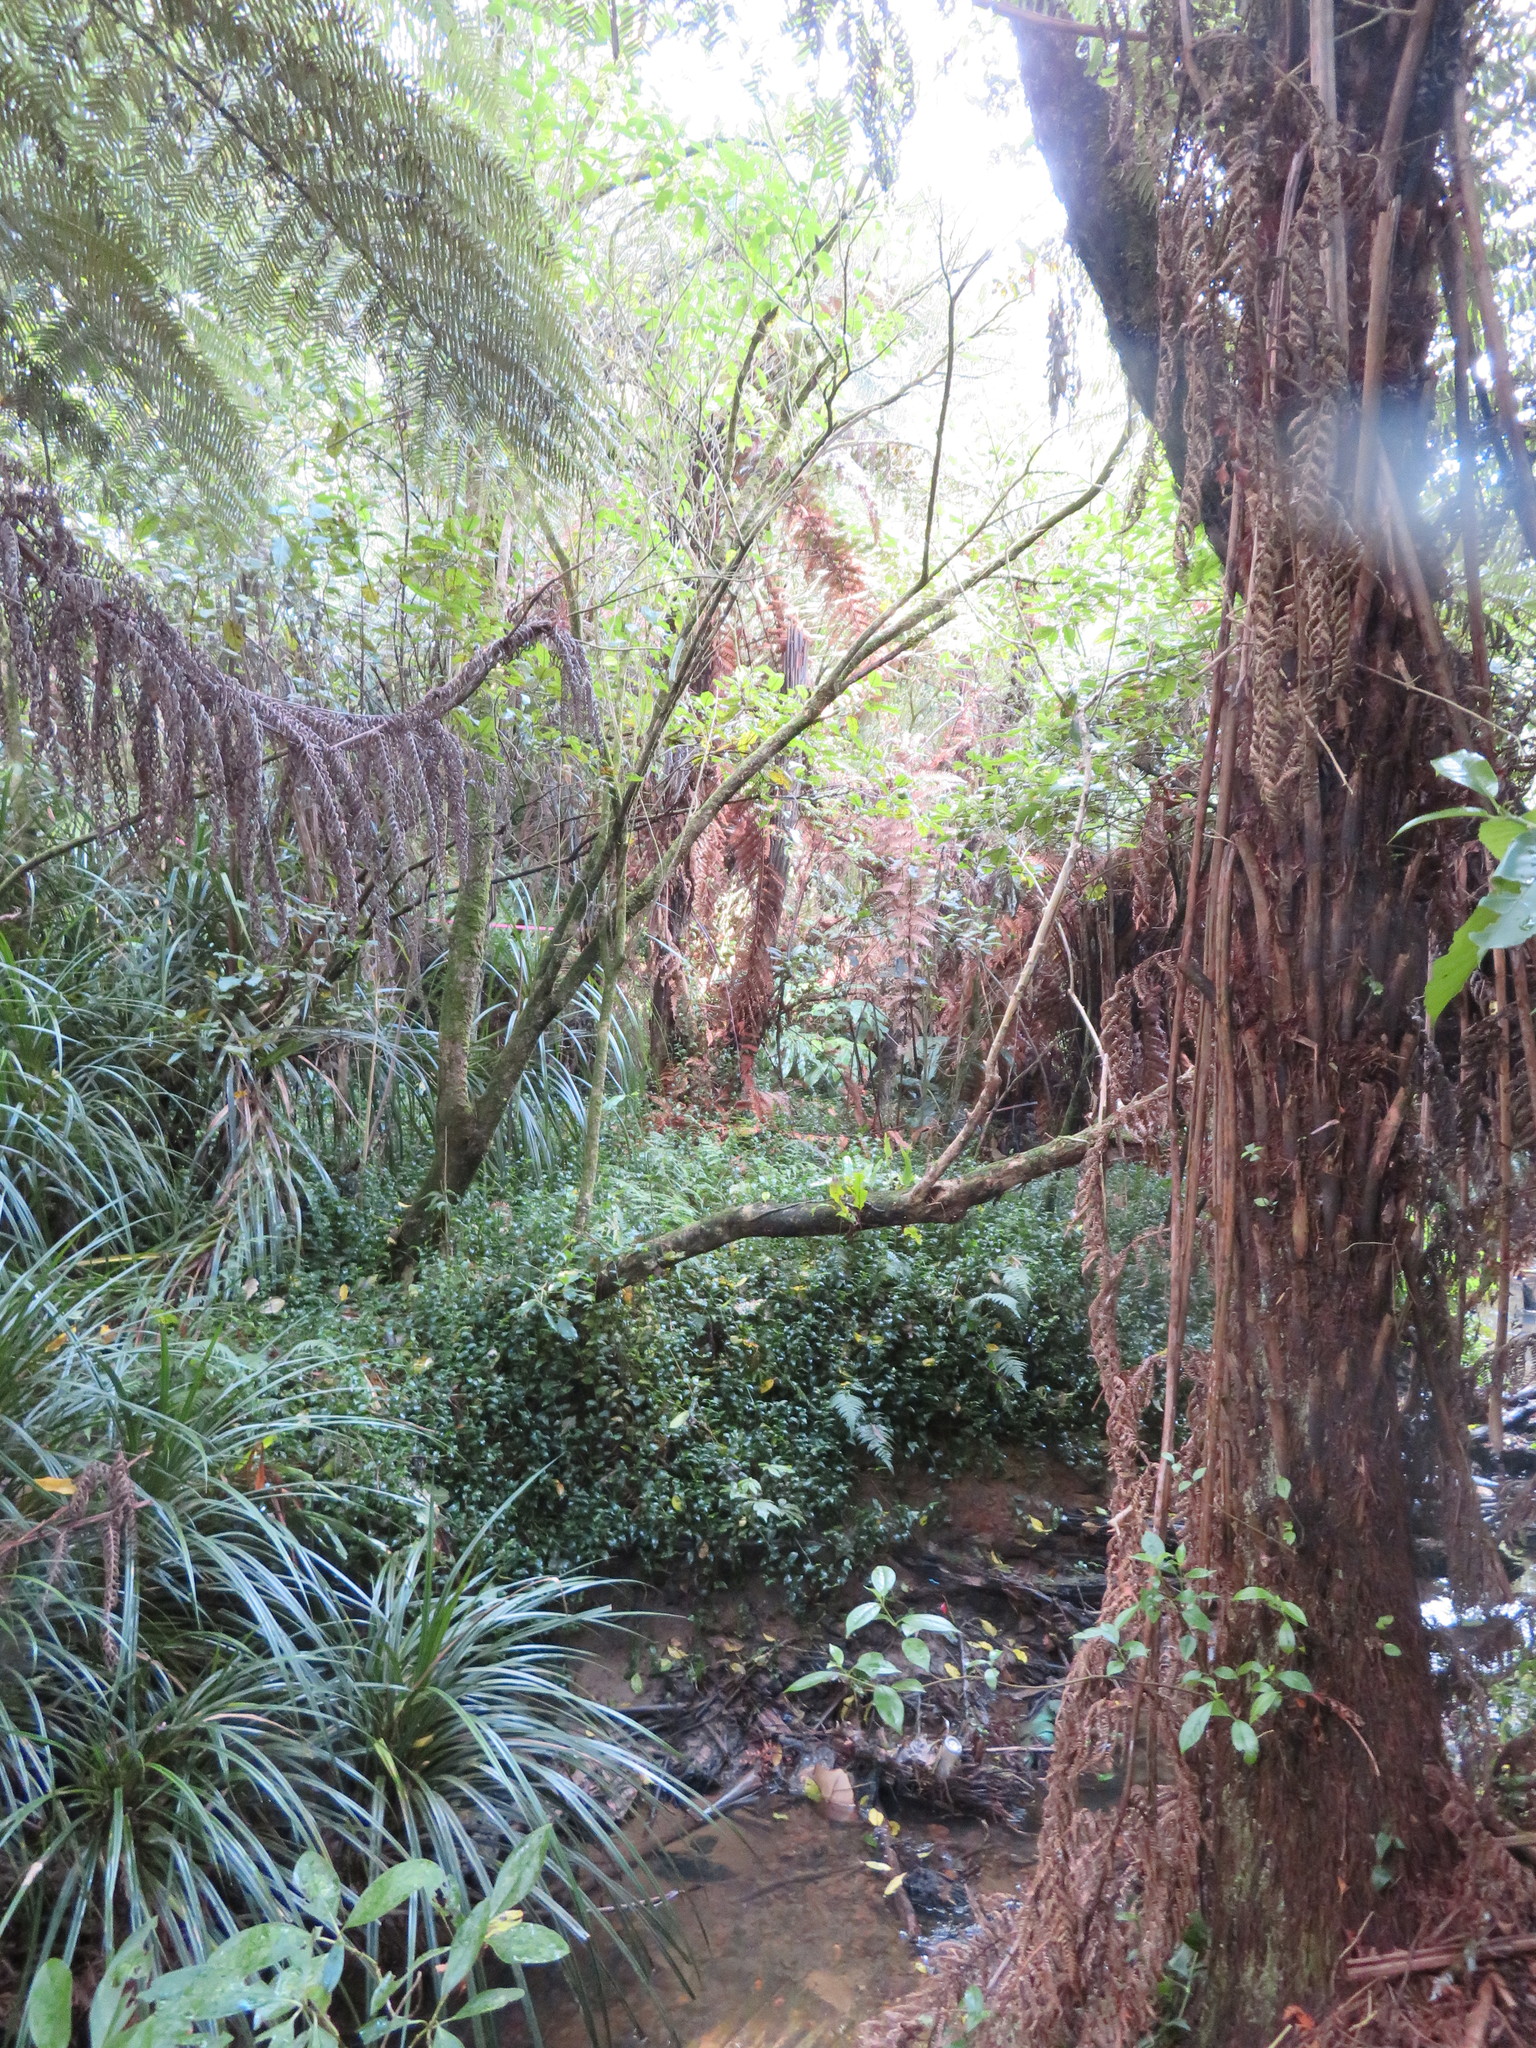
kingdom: Plantae
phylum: Tracheophyta
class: Liliopsida
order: Commelinales
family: Commelinaceae
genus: Tradescantia
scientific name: Tradescantia fluminensis
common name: Wandering-jew
